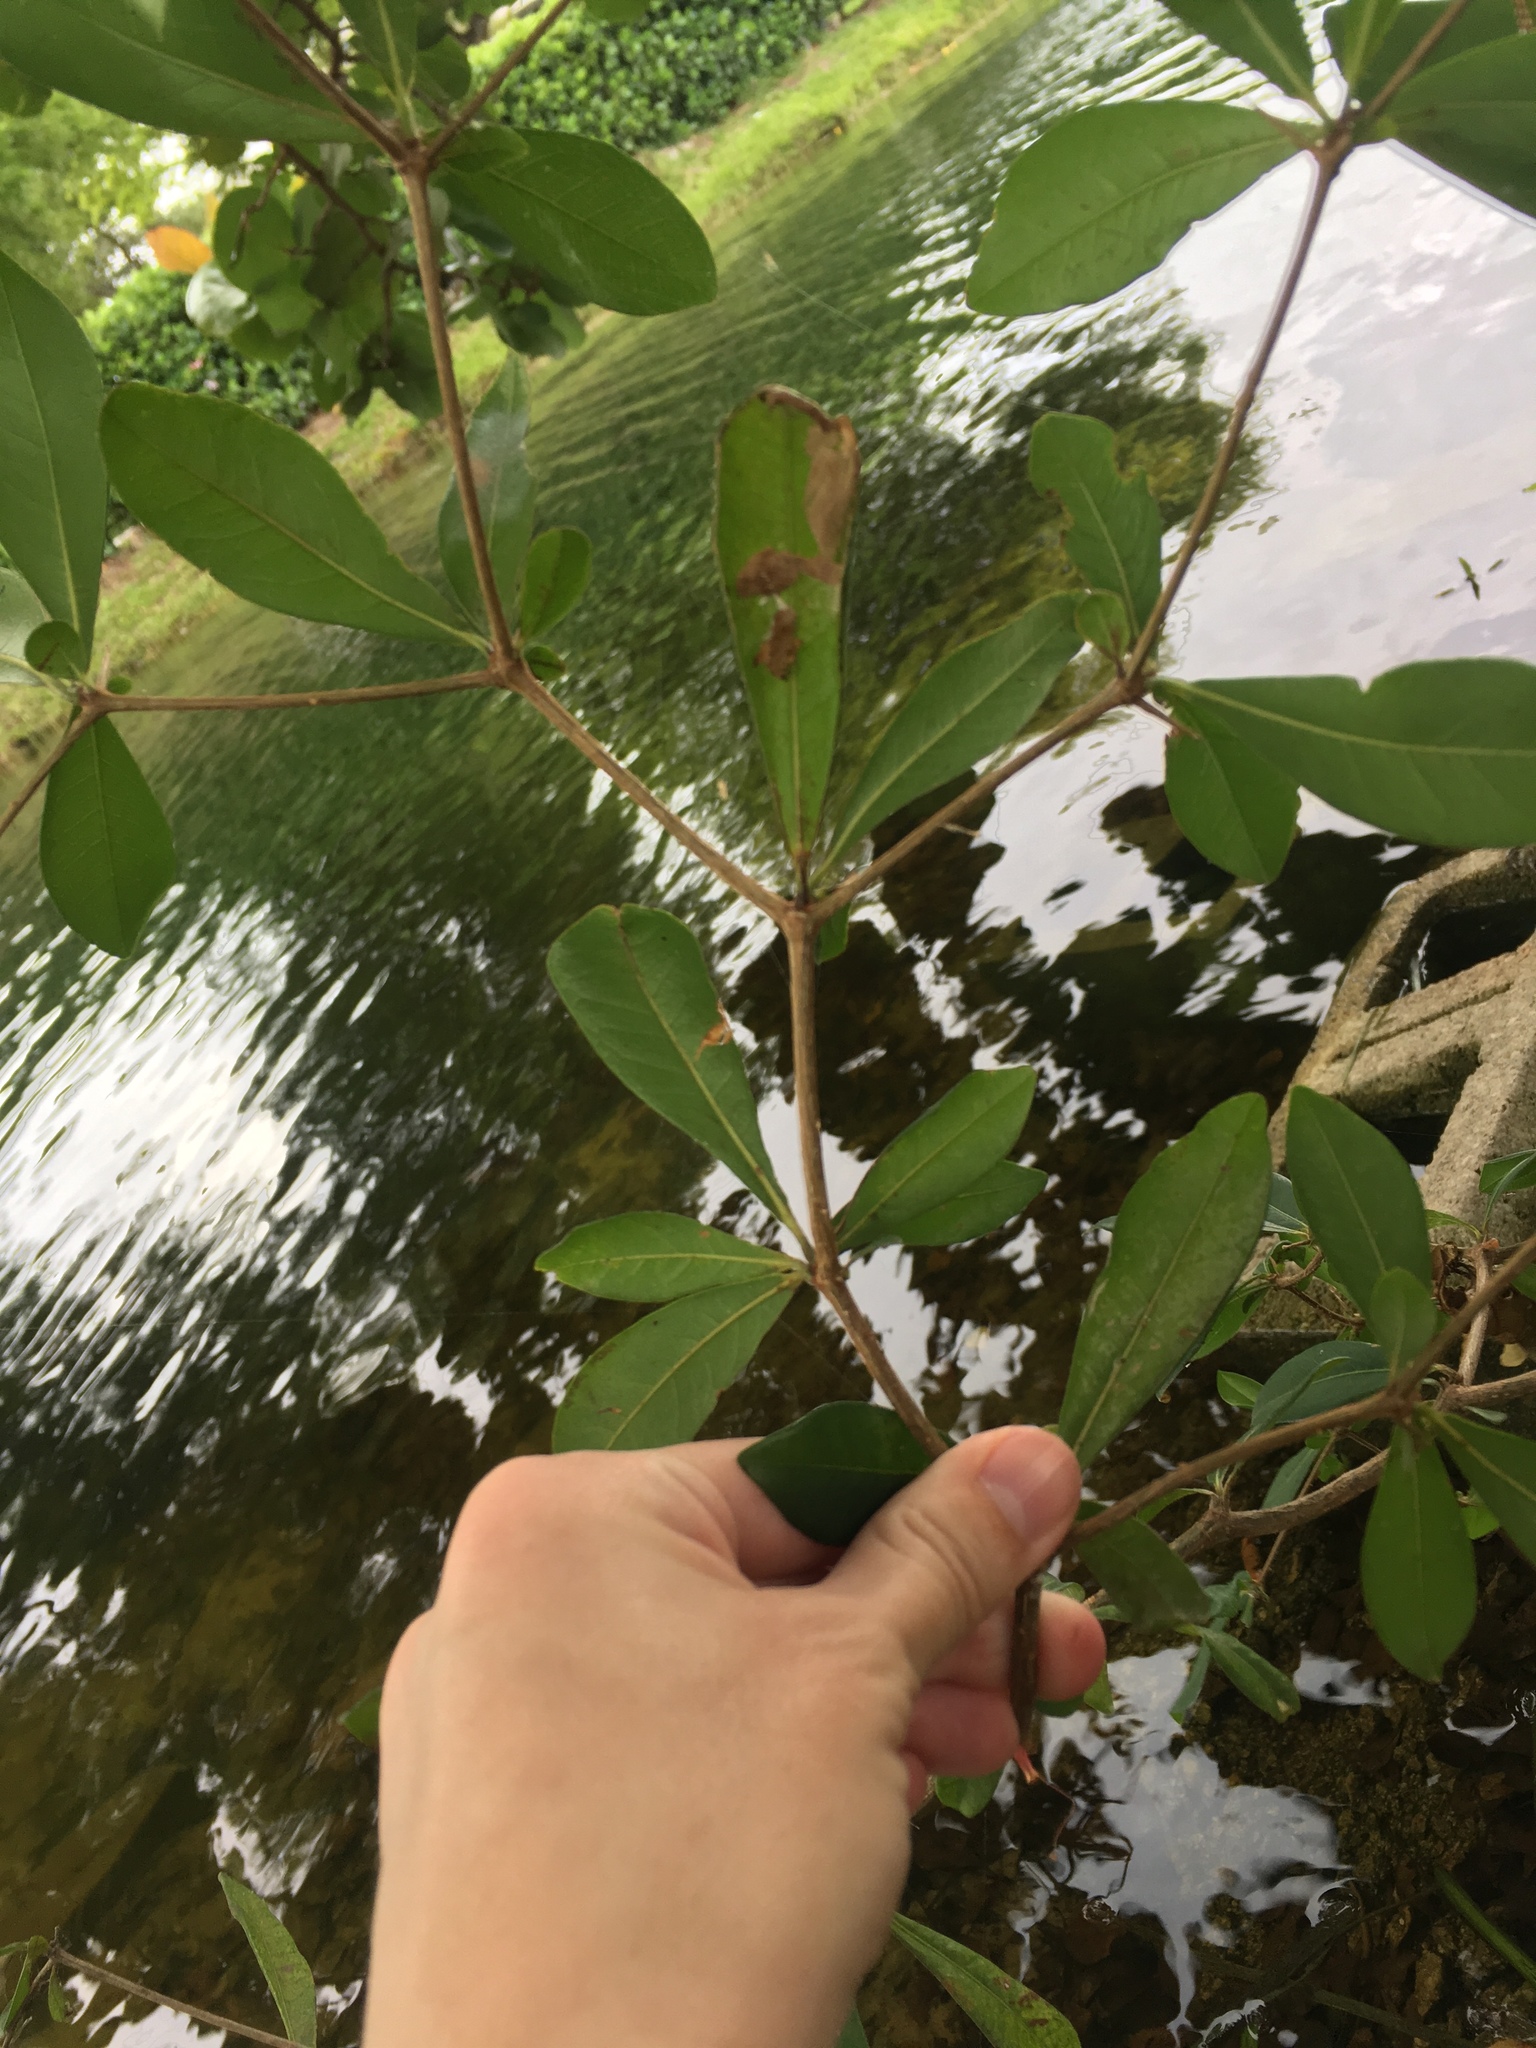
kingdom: Plantae
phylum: Tracheophyta
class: Magnoliopsida
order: Myrtales
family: Combretaceae
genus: Terminalia
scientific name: Terminalia buceras
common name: Black-olive
